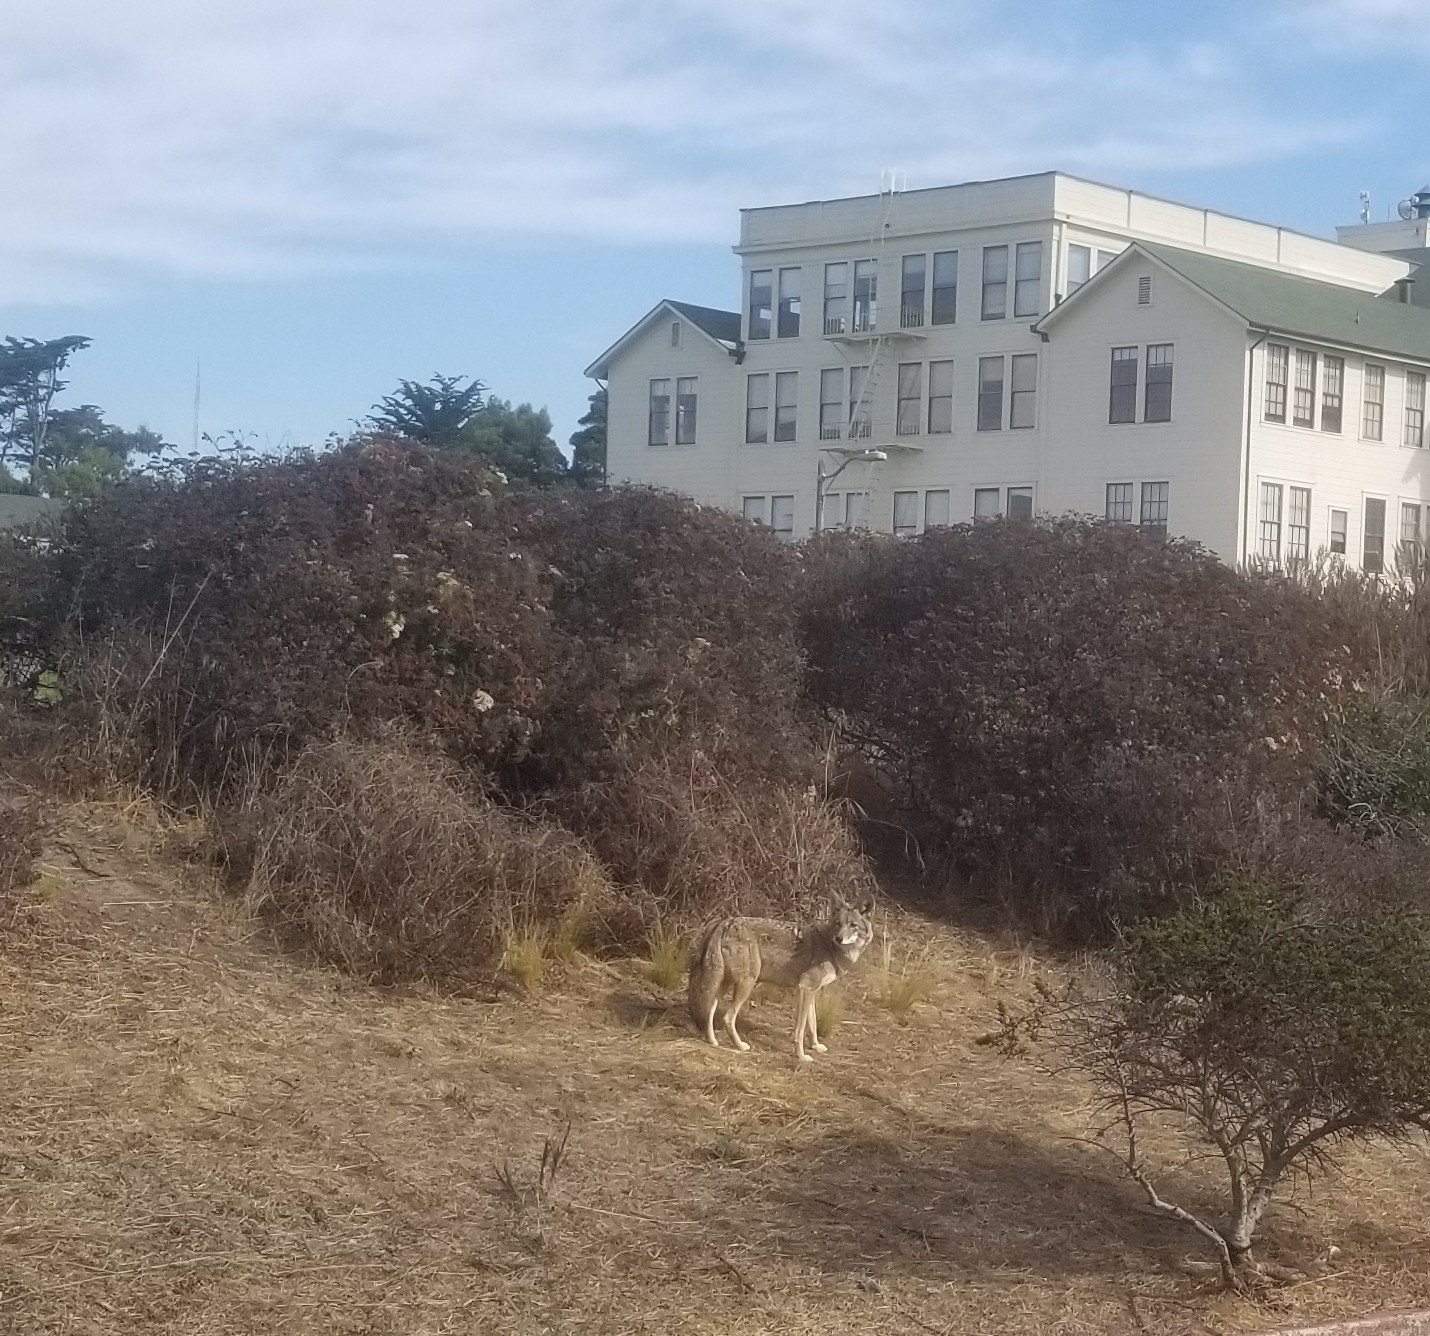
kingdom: Animalia
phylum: Chordata
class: Mammalia
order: Carnivora
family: Canidae
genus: Canis
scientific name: Canis latrans
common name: Coyote
